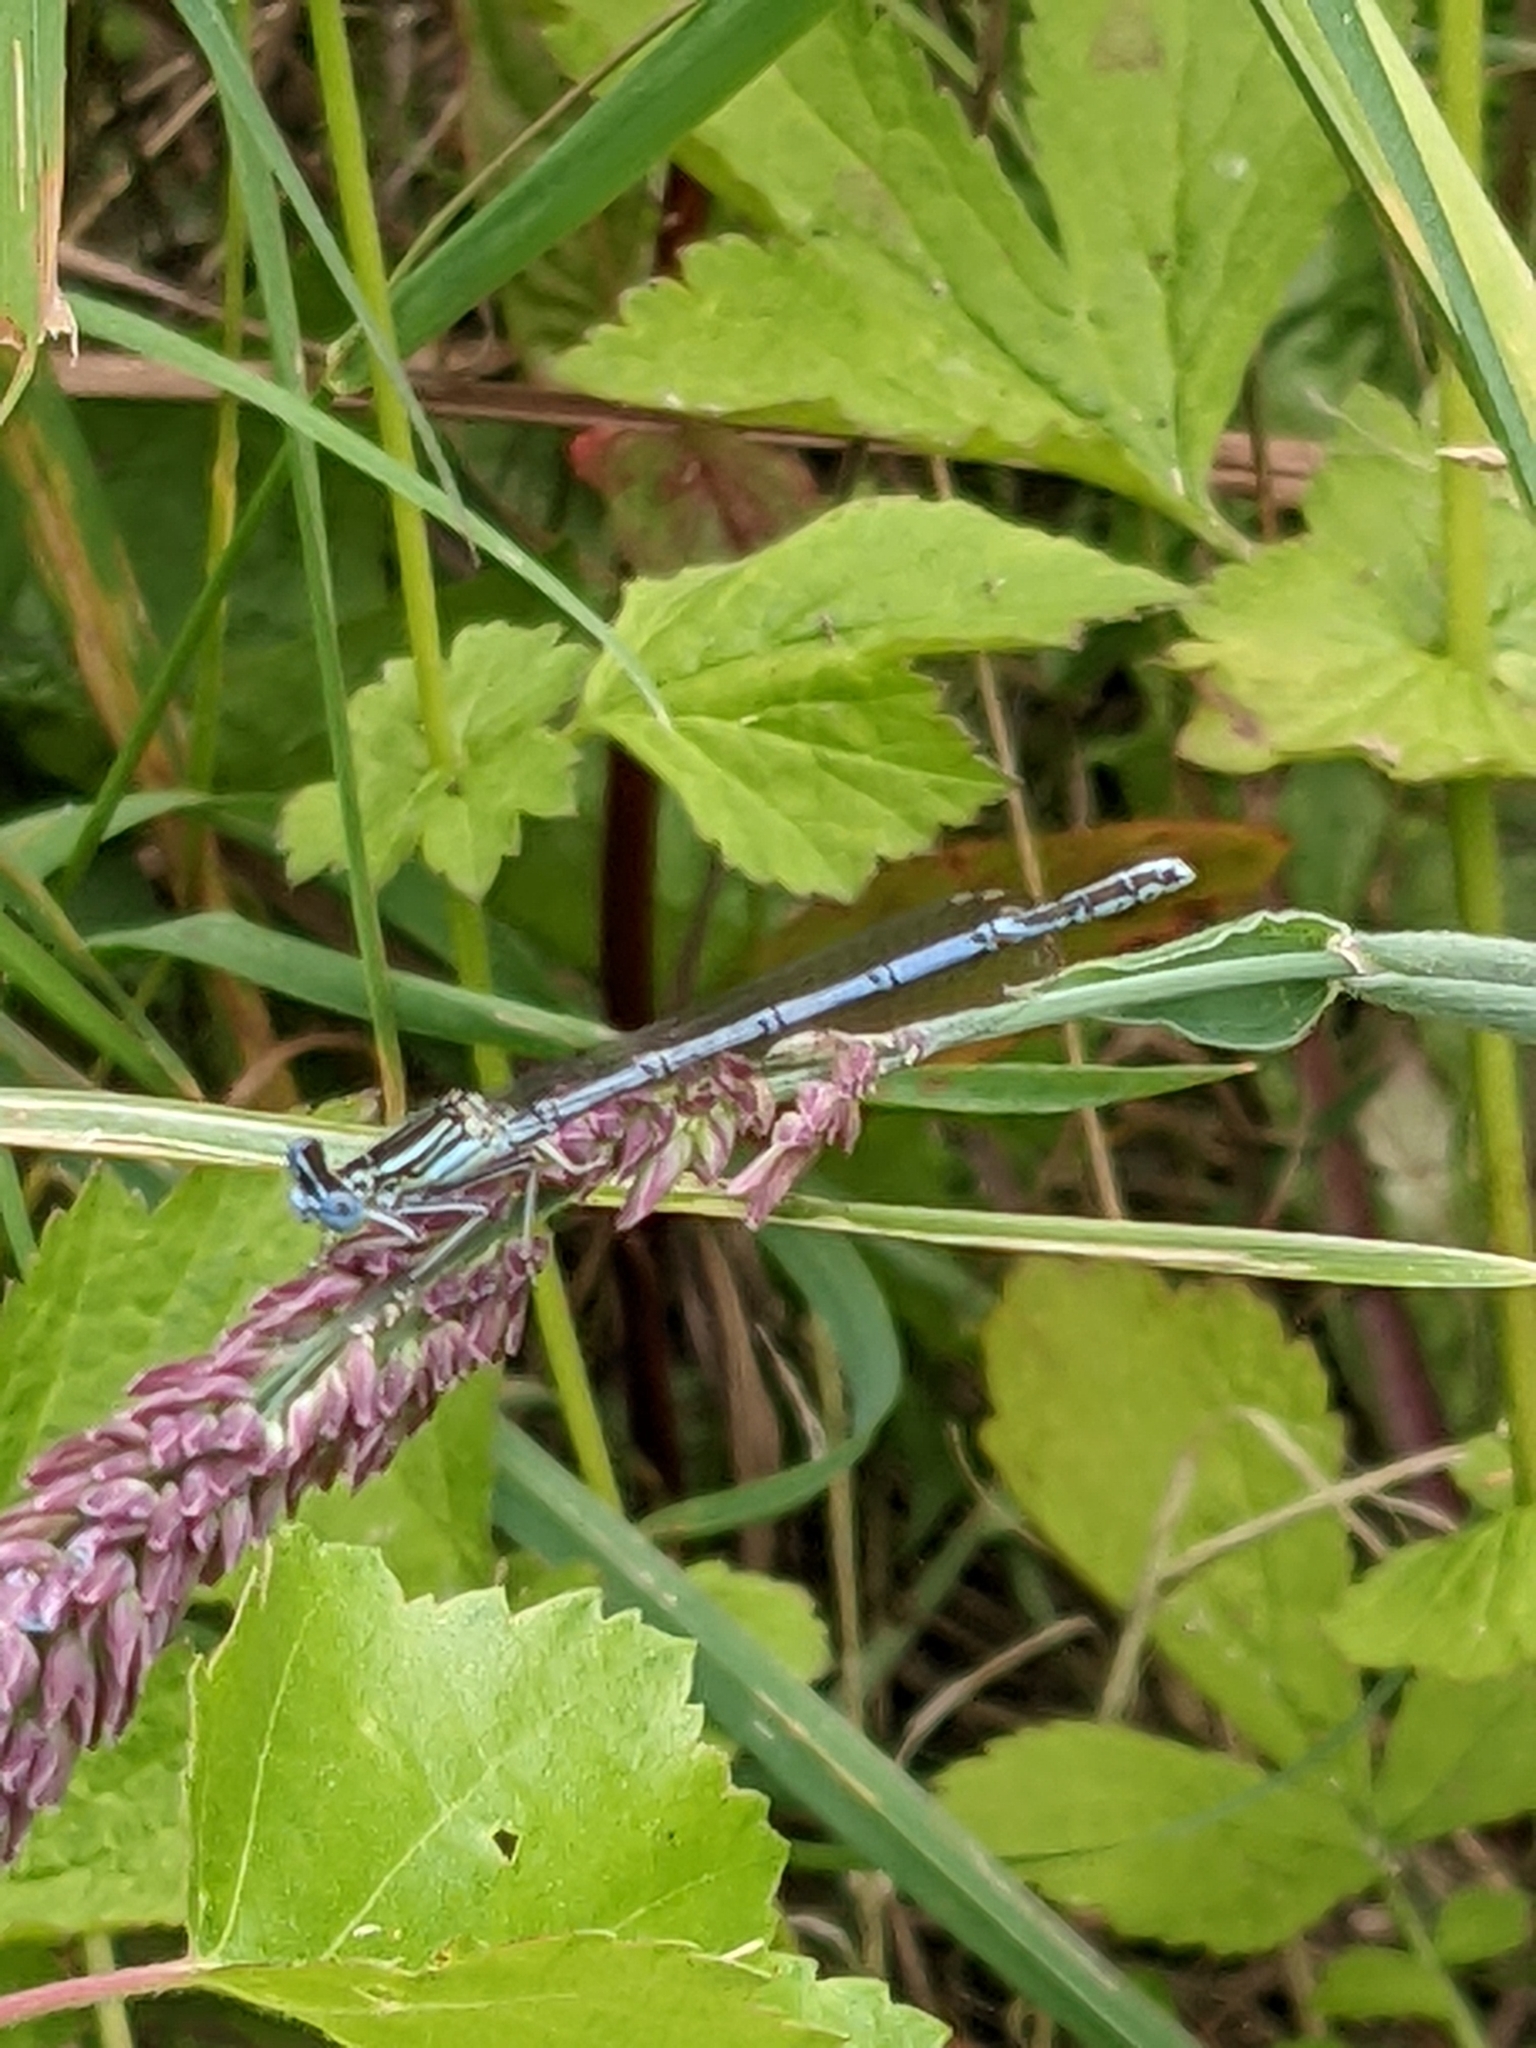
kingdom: Animalia
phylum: Arthropoda
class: Insecta
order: Odonata
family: Platycnemididae
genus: Platycnemis
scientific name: Platycnemis pennipes
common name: White-legged damselfly
